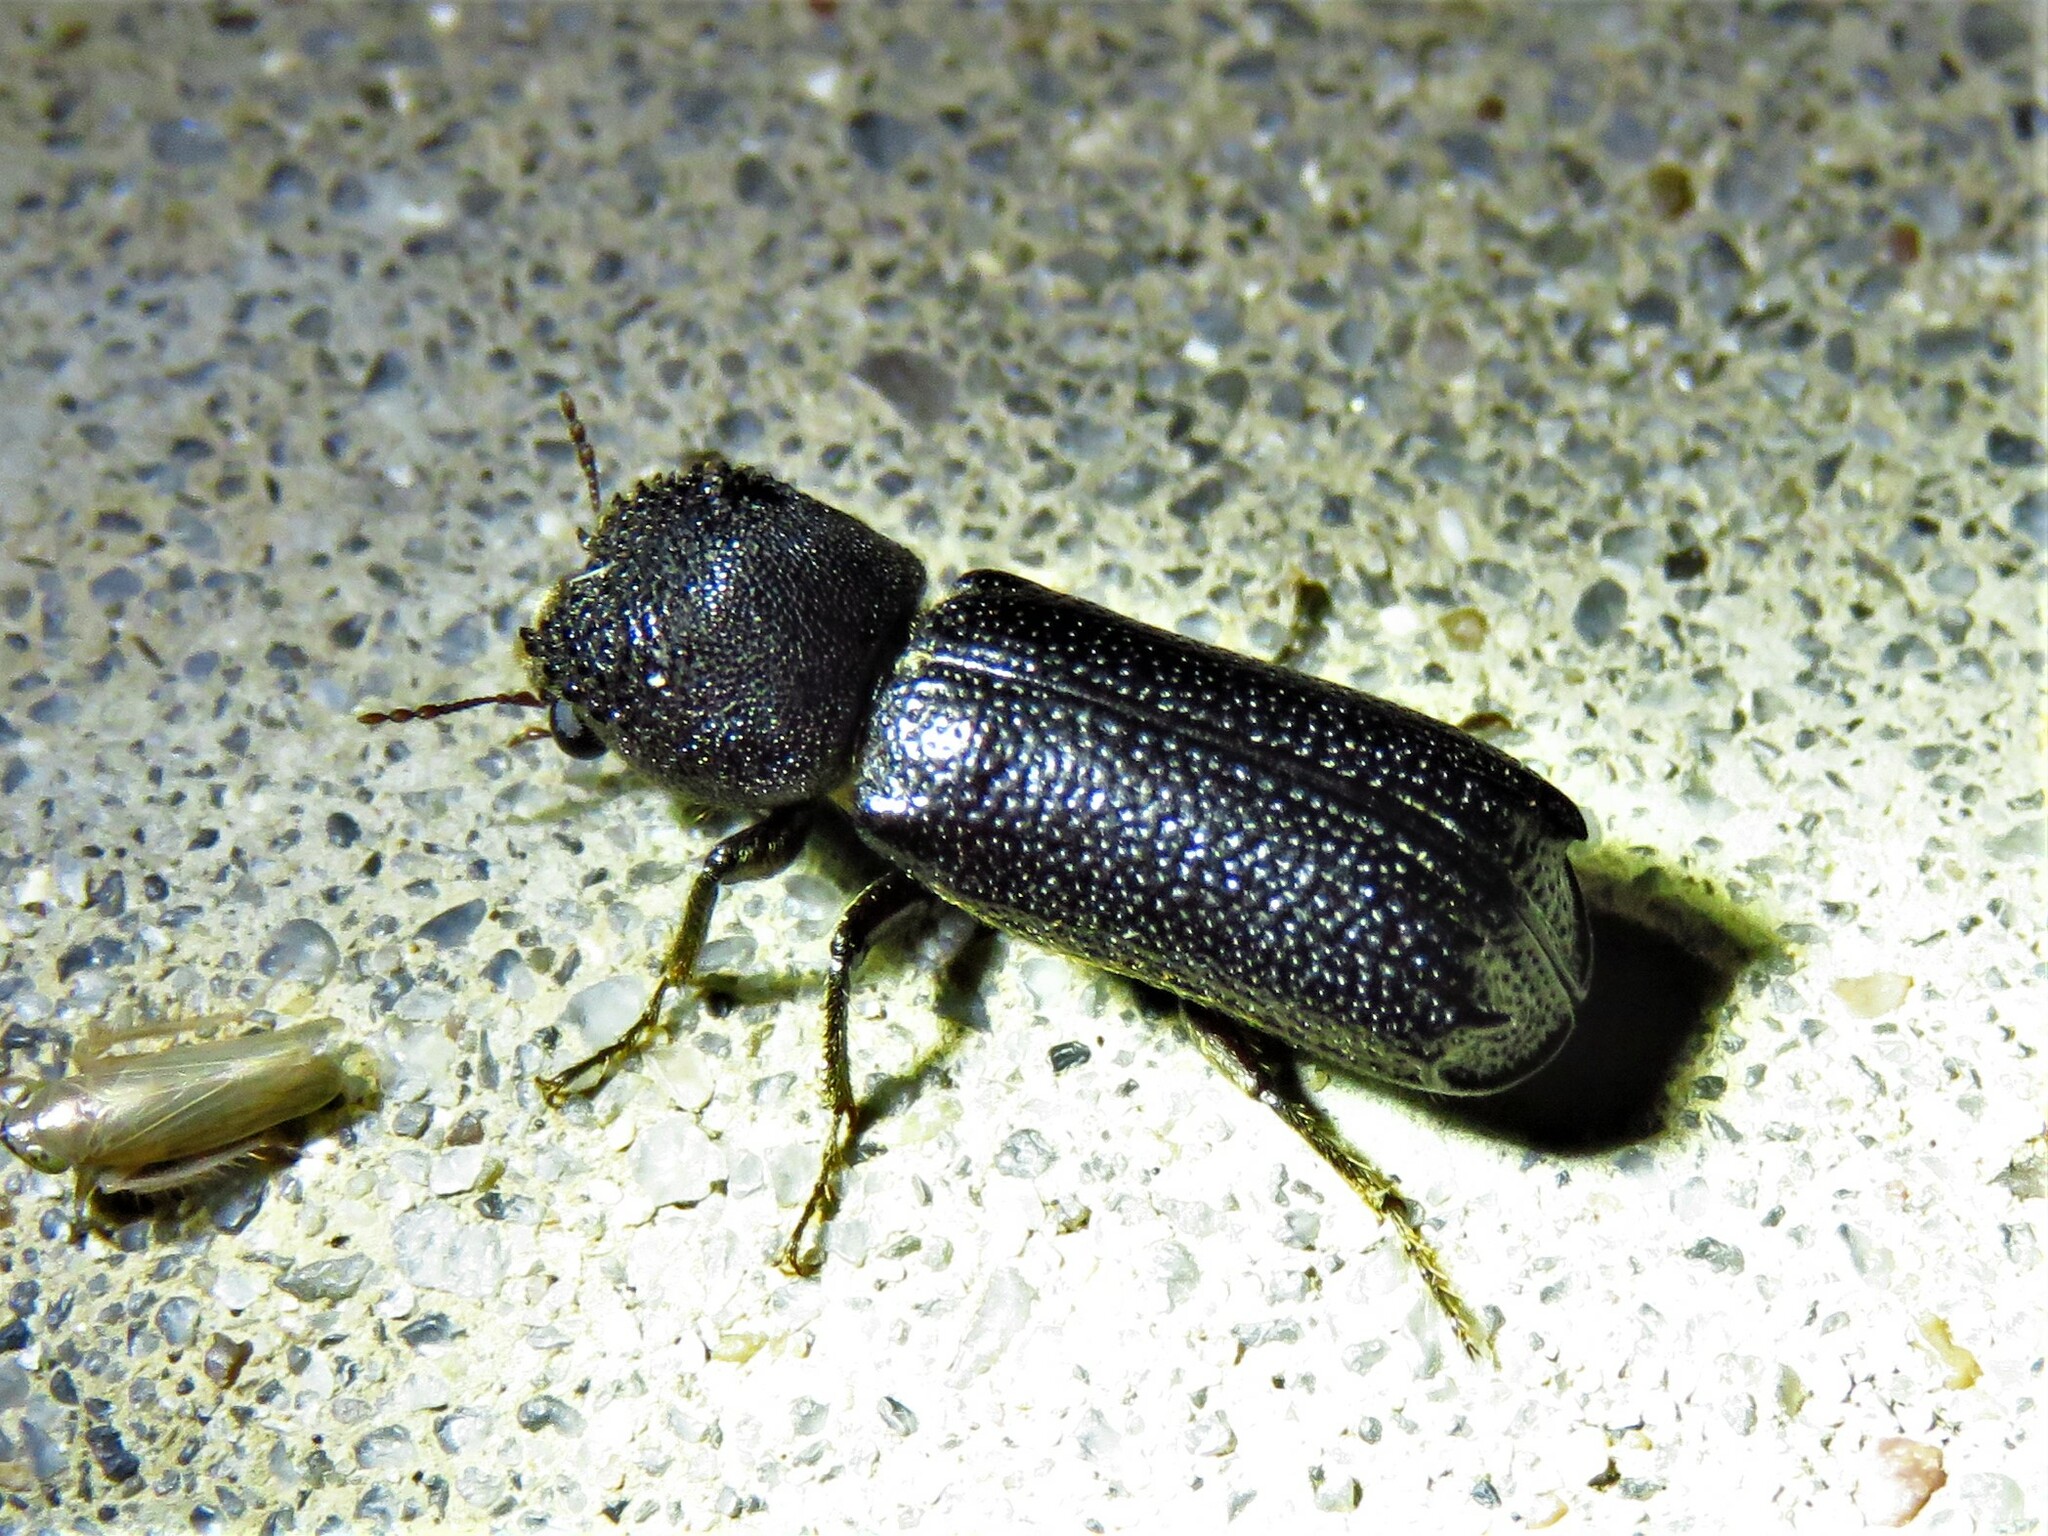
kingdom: Animalia
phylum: Arthropoda
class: Insecta
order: Coleoptera
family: Bostrichidae
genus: Amphicerus
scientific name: Amphicerus cornutus
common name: Powderpost beetle
